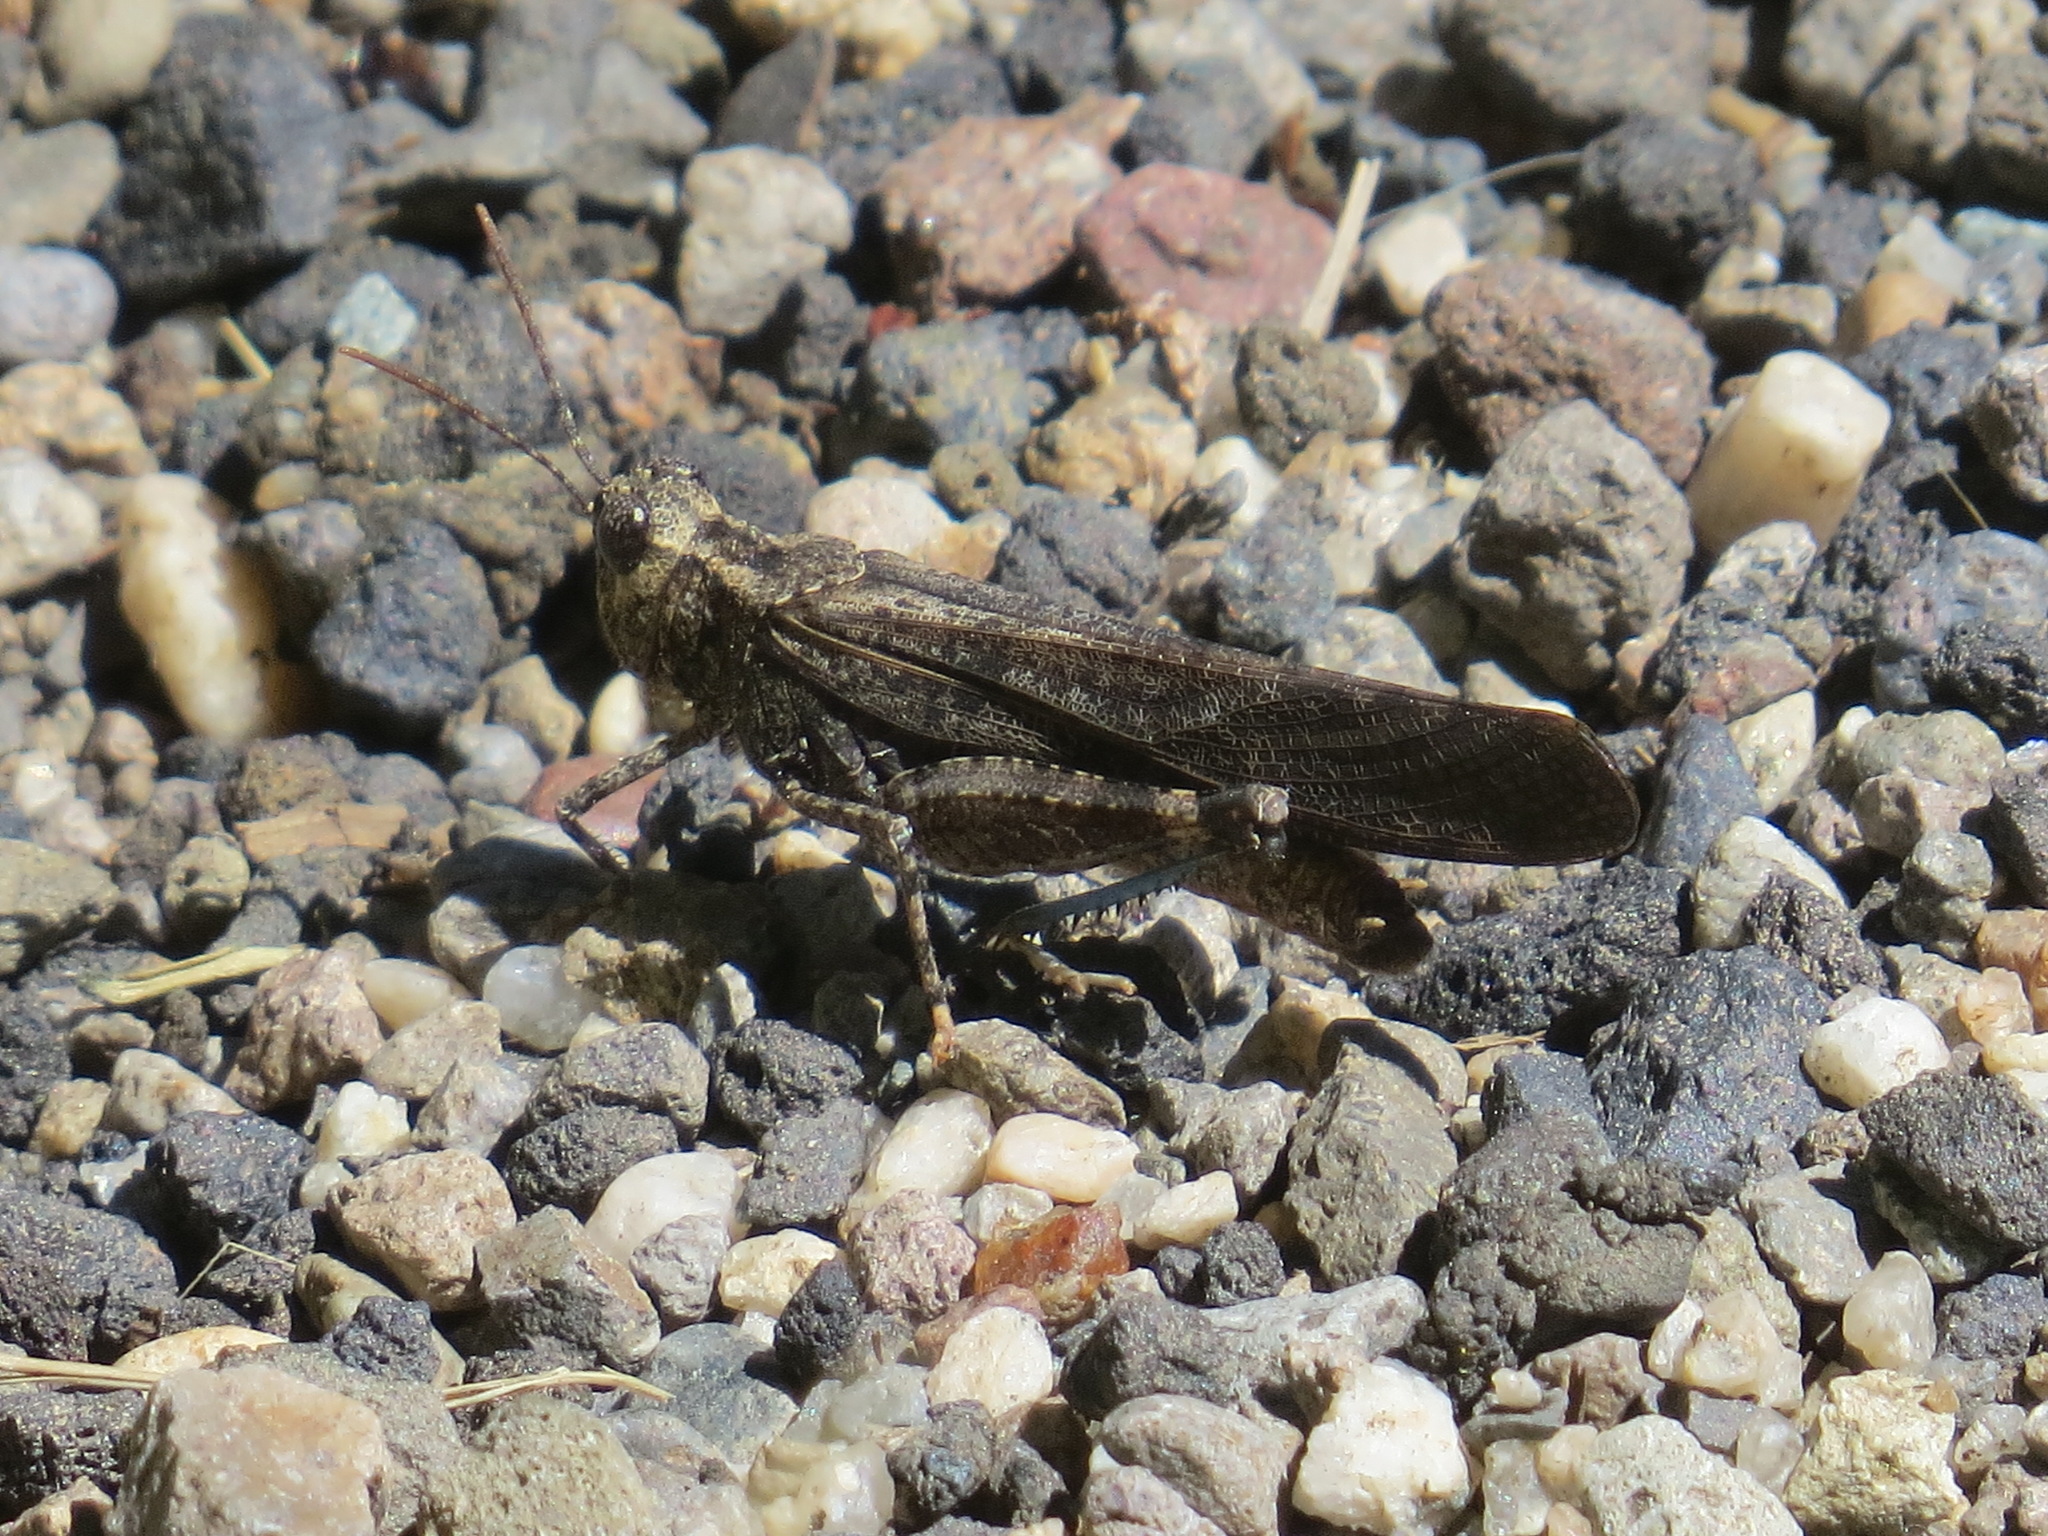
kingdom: Animalia
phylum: Arthropoda
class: Insecta
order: Orthoptera
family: Acrididae
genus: Trimerotropis
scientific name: Trimerotropis verruculata
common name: Crackling forest grasshopper
